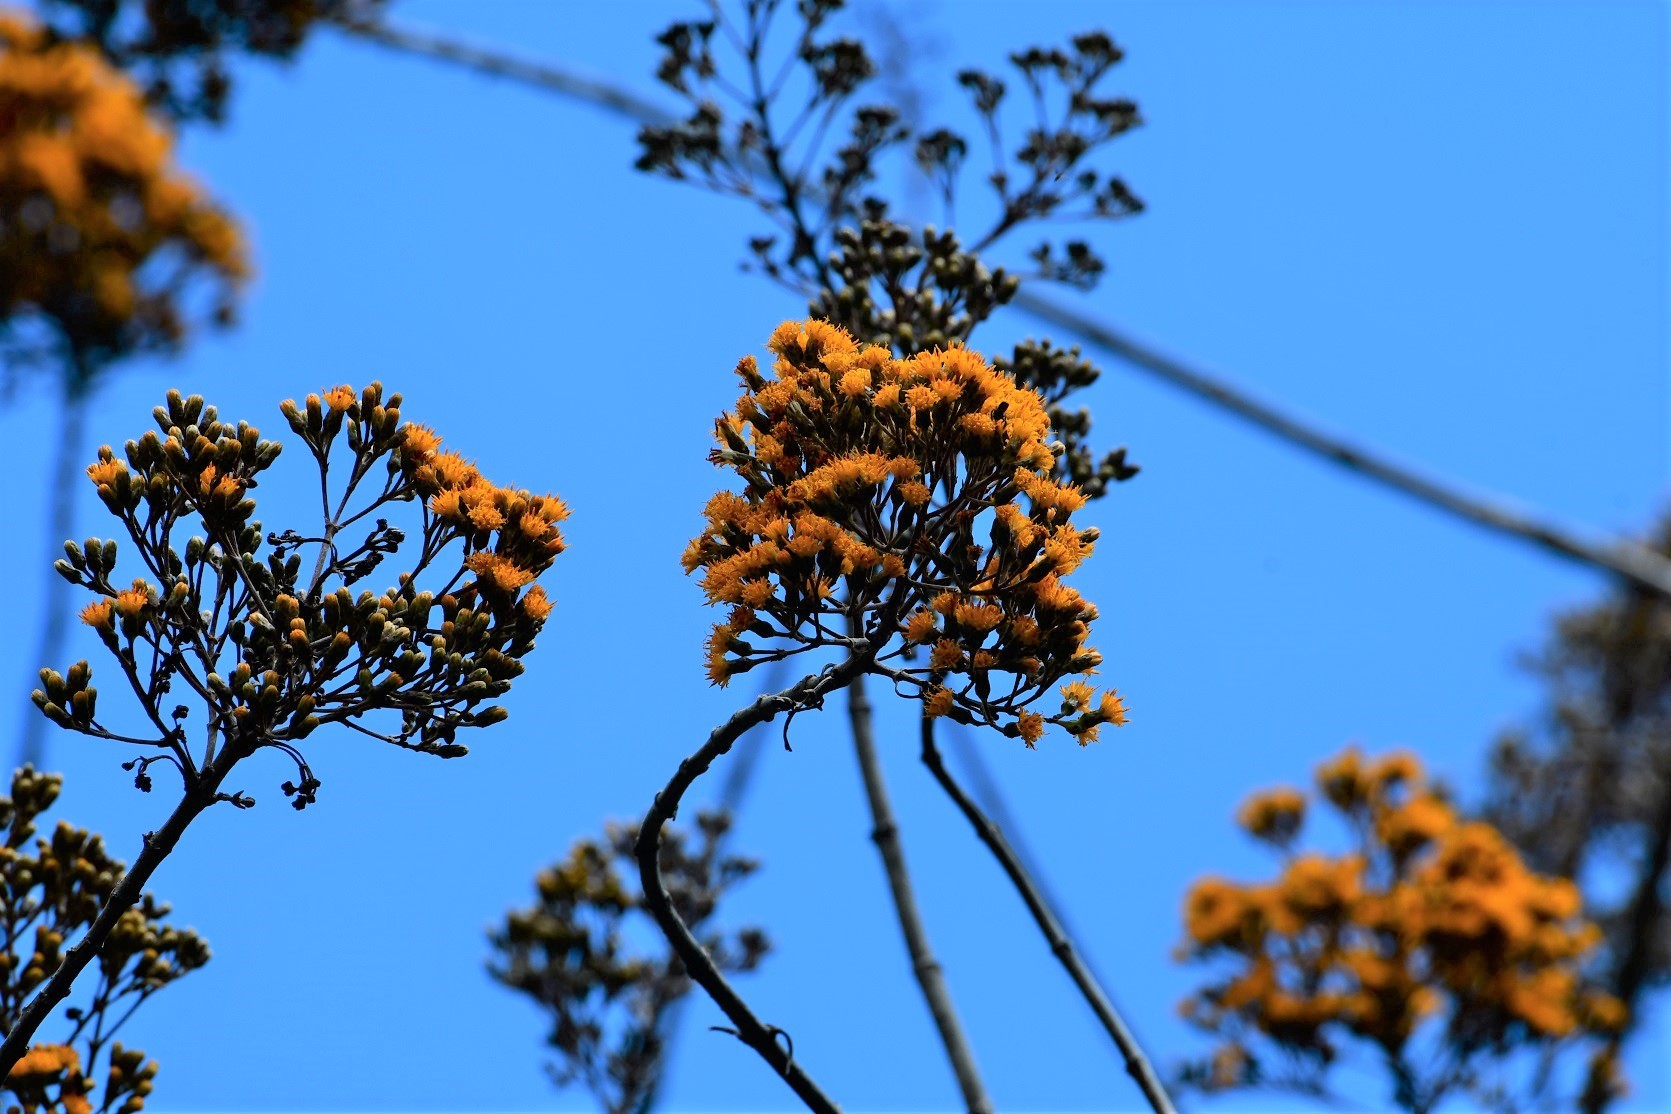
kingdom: Plantae
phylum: Tracheophyta
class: Magnoliopsida
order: Asterales
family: Asteraceae
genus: Sinclairia
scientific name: Sinclairia vagans
